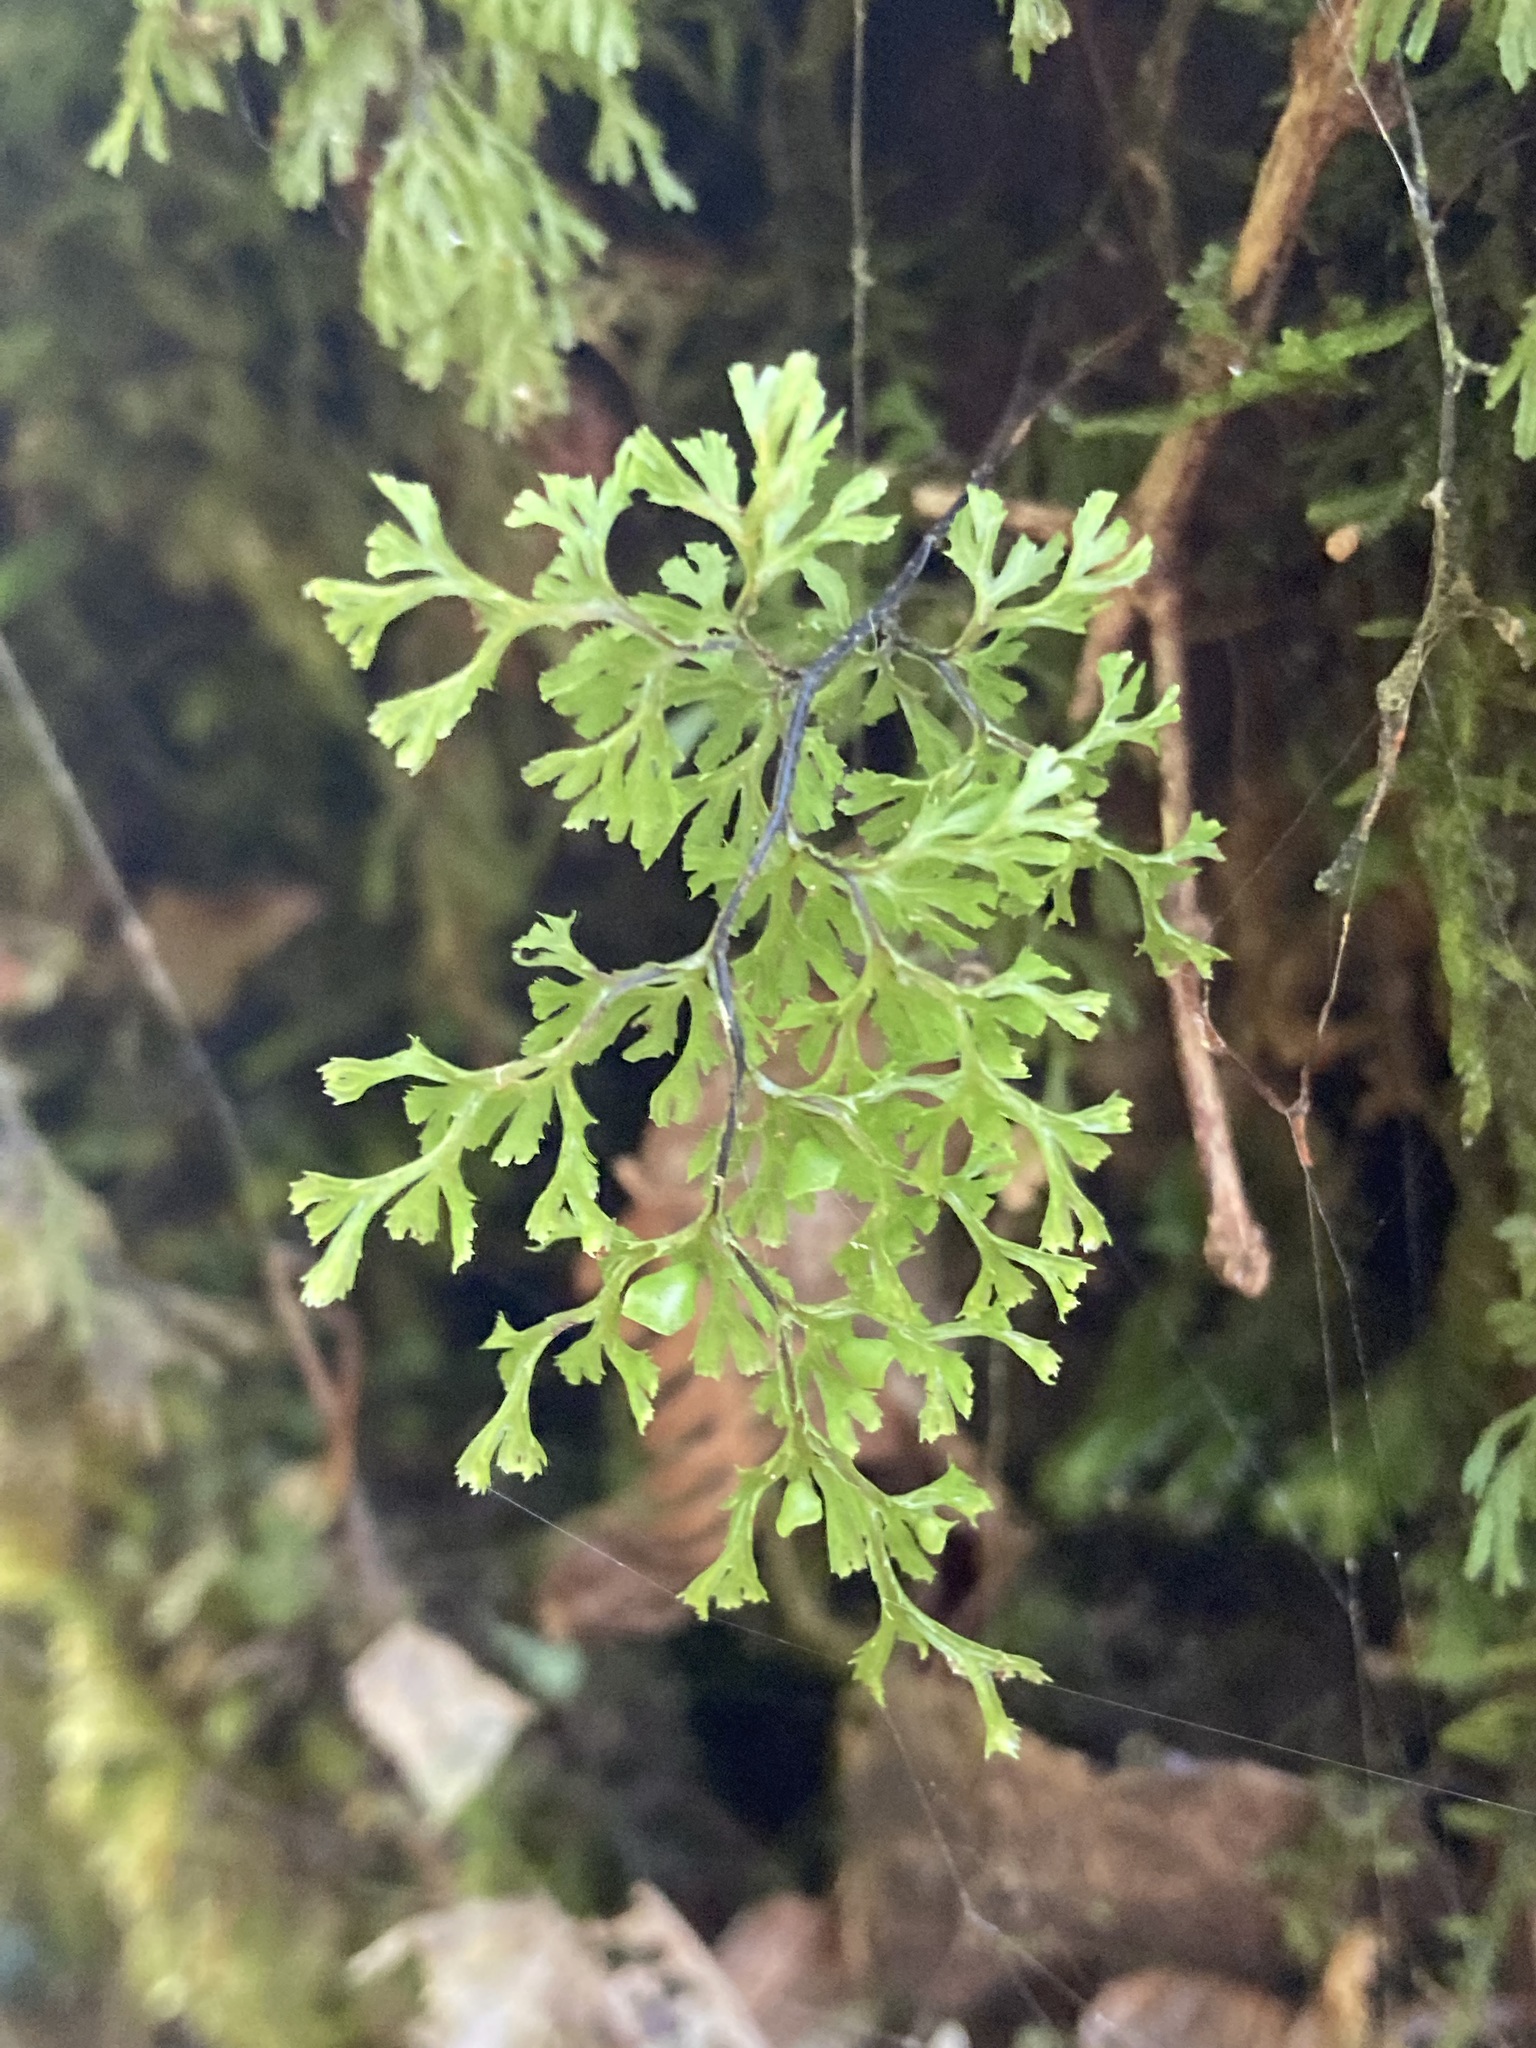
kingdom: Plantae
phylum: Tracheophyta
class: Polypodiopsida
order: Hymenophyllales
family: Hymenophyllaceae
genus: Hymenophyllum
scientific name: Hymenophyllum multifidum
